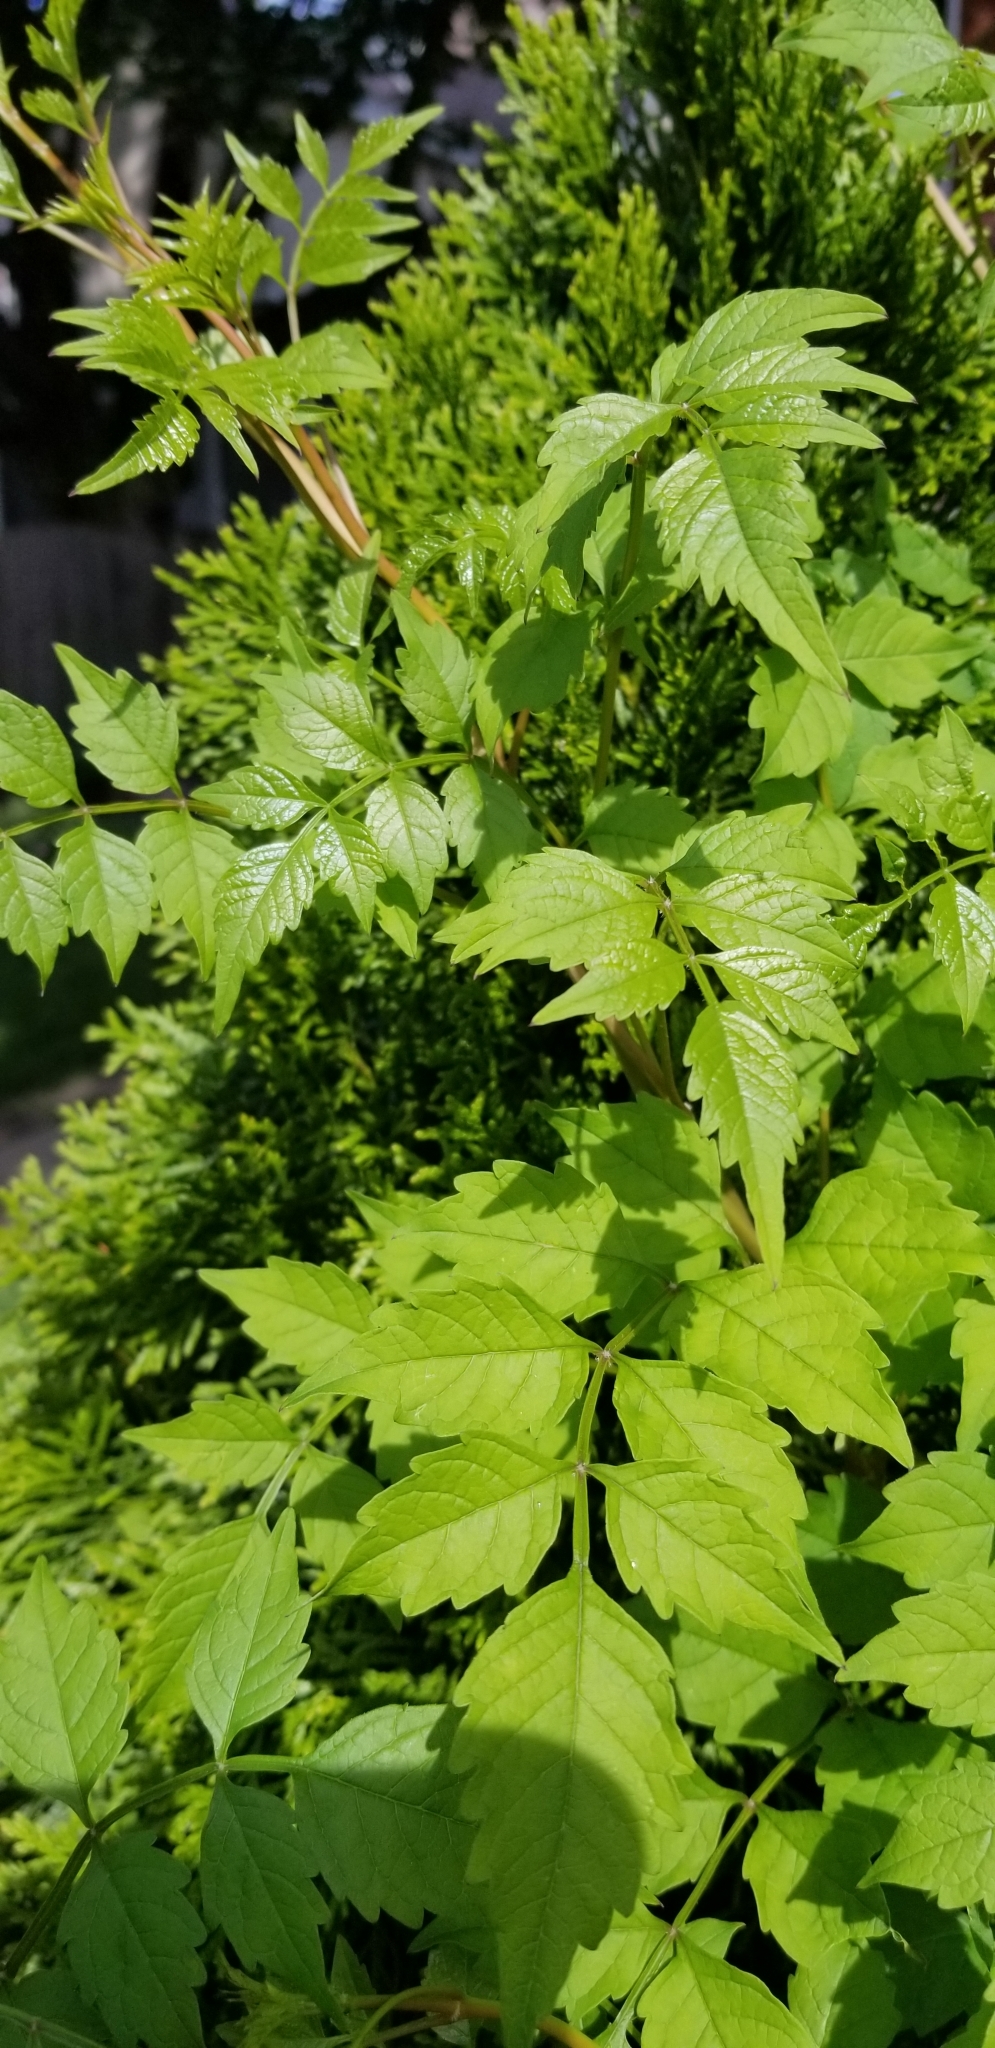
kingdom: Plantae
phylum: Tracheophyta
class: Magnoliopsida
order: Lamiales
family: Bignoniaceae
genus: Campsis
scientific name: Campsis radicans
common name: Trumpet-creeper
